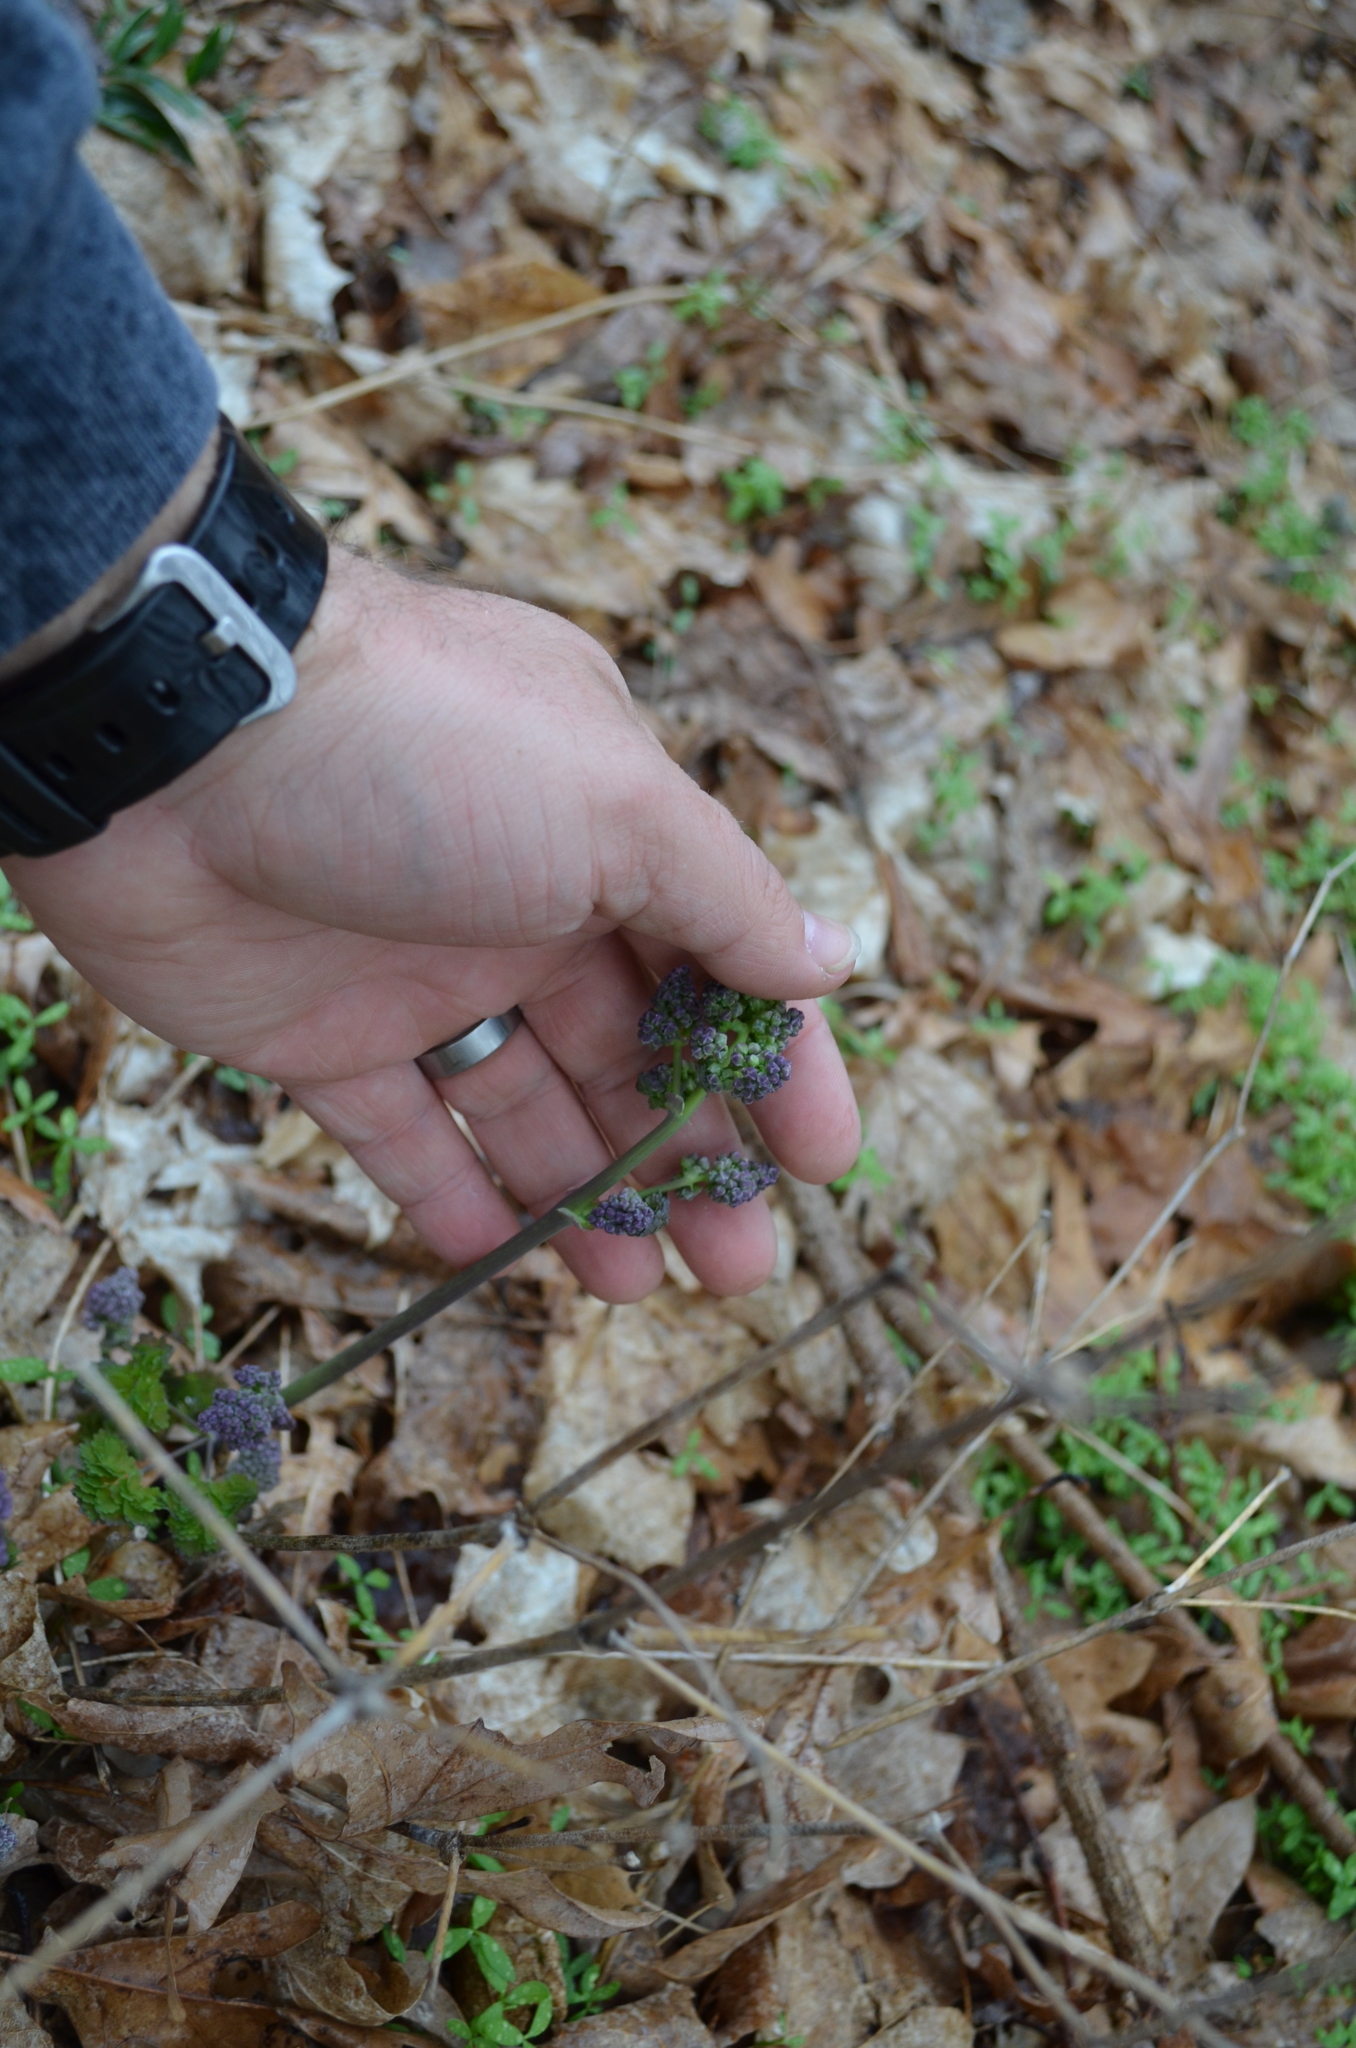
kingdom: Plantae
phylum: Tracheophyta
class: Magnoliopsida
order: Ranunculales
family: Ranunculaceae
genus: Thalictrum
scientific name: Thalictrum dioicum
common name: Early meadow-rue
